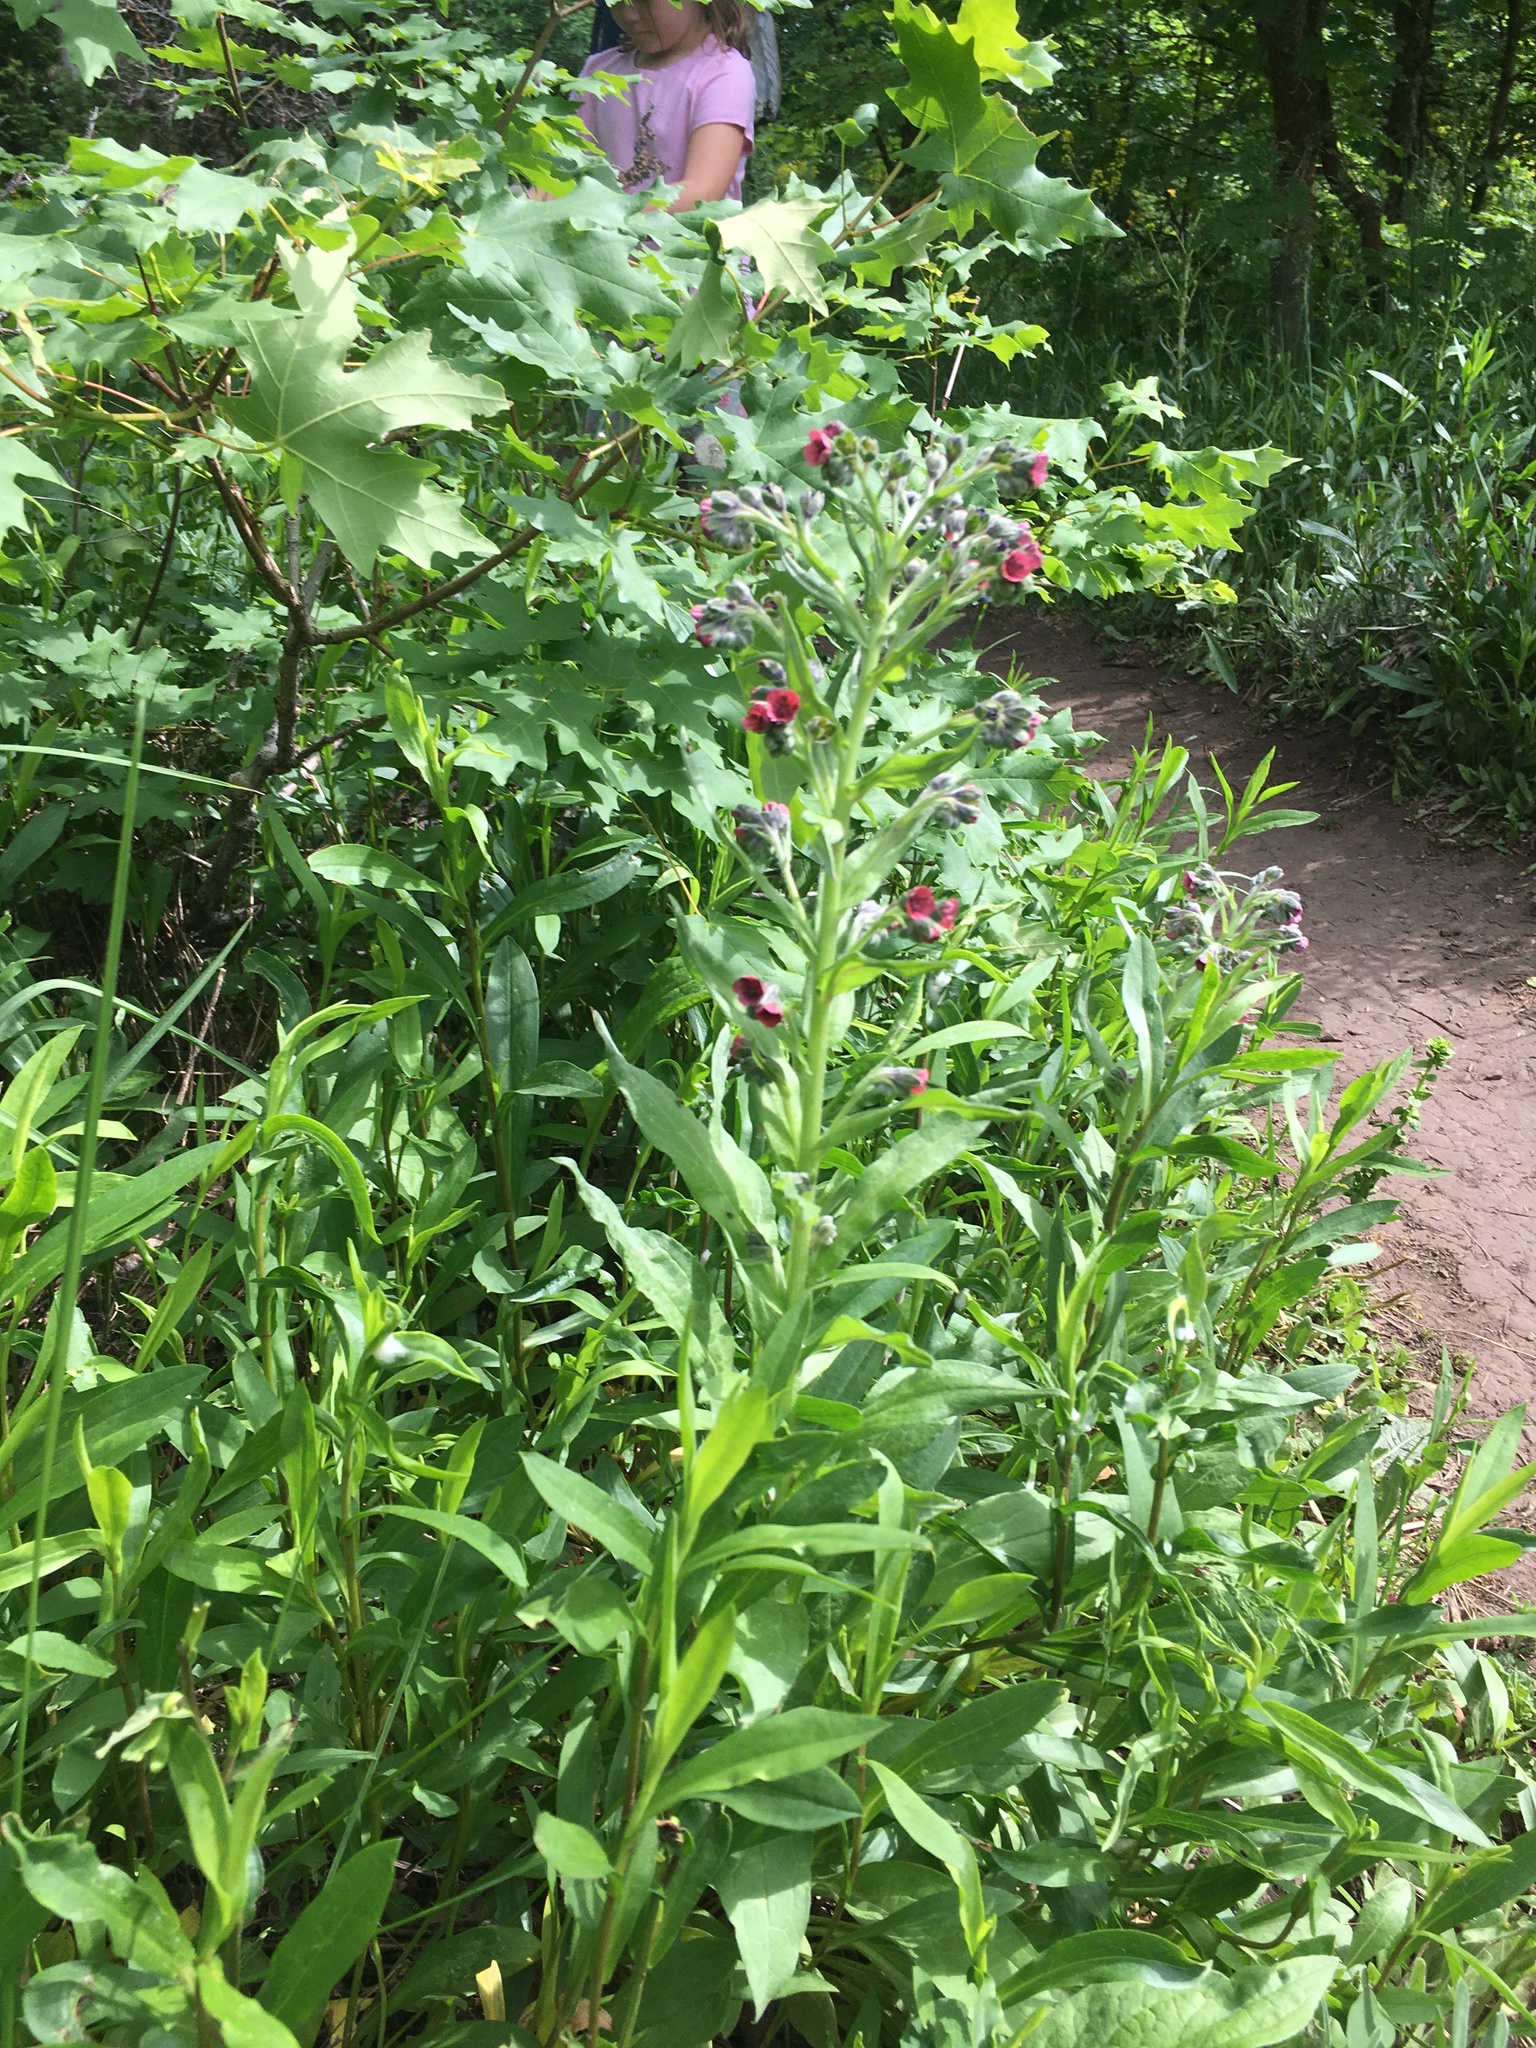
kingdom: Plantae
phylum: Tracheophyta
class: Magnoliopsida
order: Boraginales
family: Boraginaceae
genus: Cynoglossum
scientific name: Cynoglossum officinale
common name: Hound's-tongue
